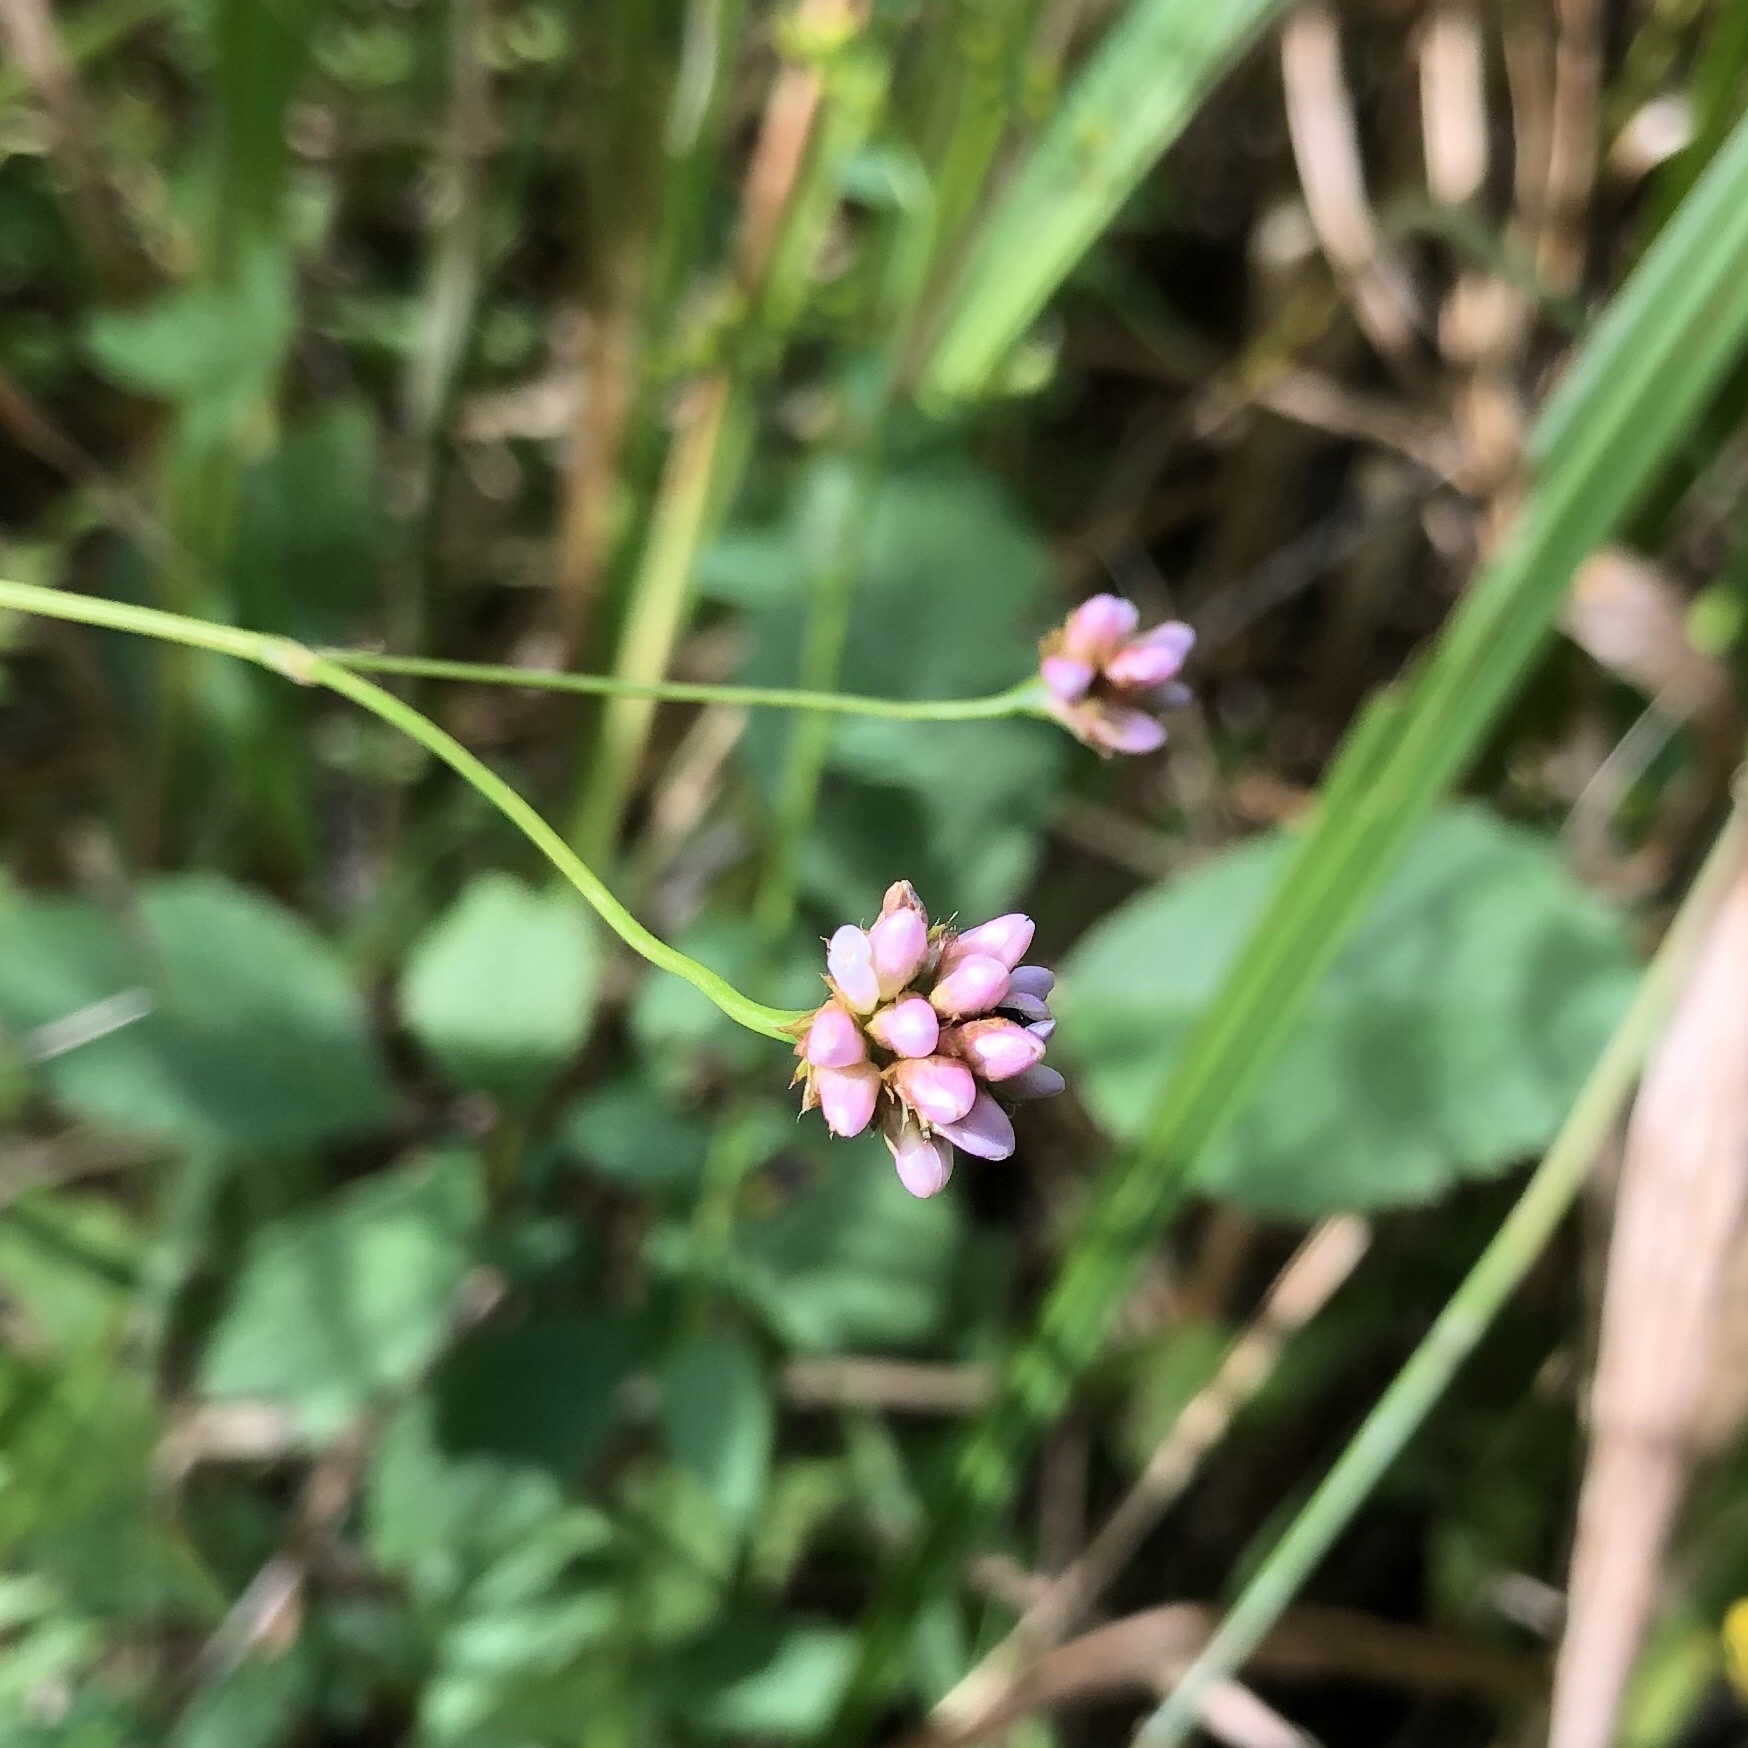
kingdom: Plantae
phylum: Tracheophyta
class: Magnoliopsida
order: Caryophyllales
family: Polygonaceae
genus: Persicaria
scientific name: Persicaria sagittata
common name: American tearthumb
